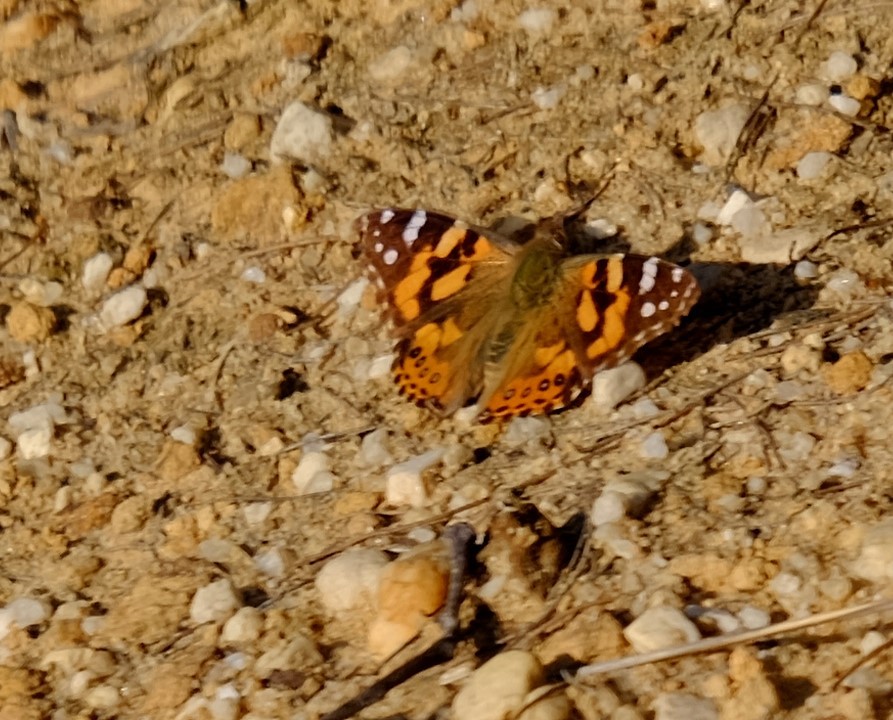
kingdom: Animalia
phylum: Arthropoda
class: Insecta
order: Lepidoptera
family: Nymphalidae
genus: Vanessa
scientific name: Vanessa kershawi
